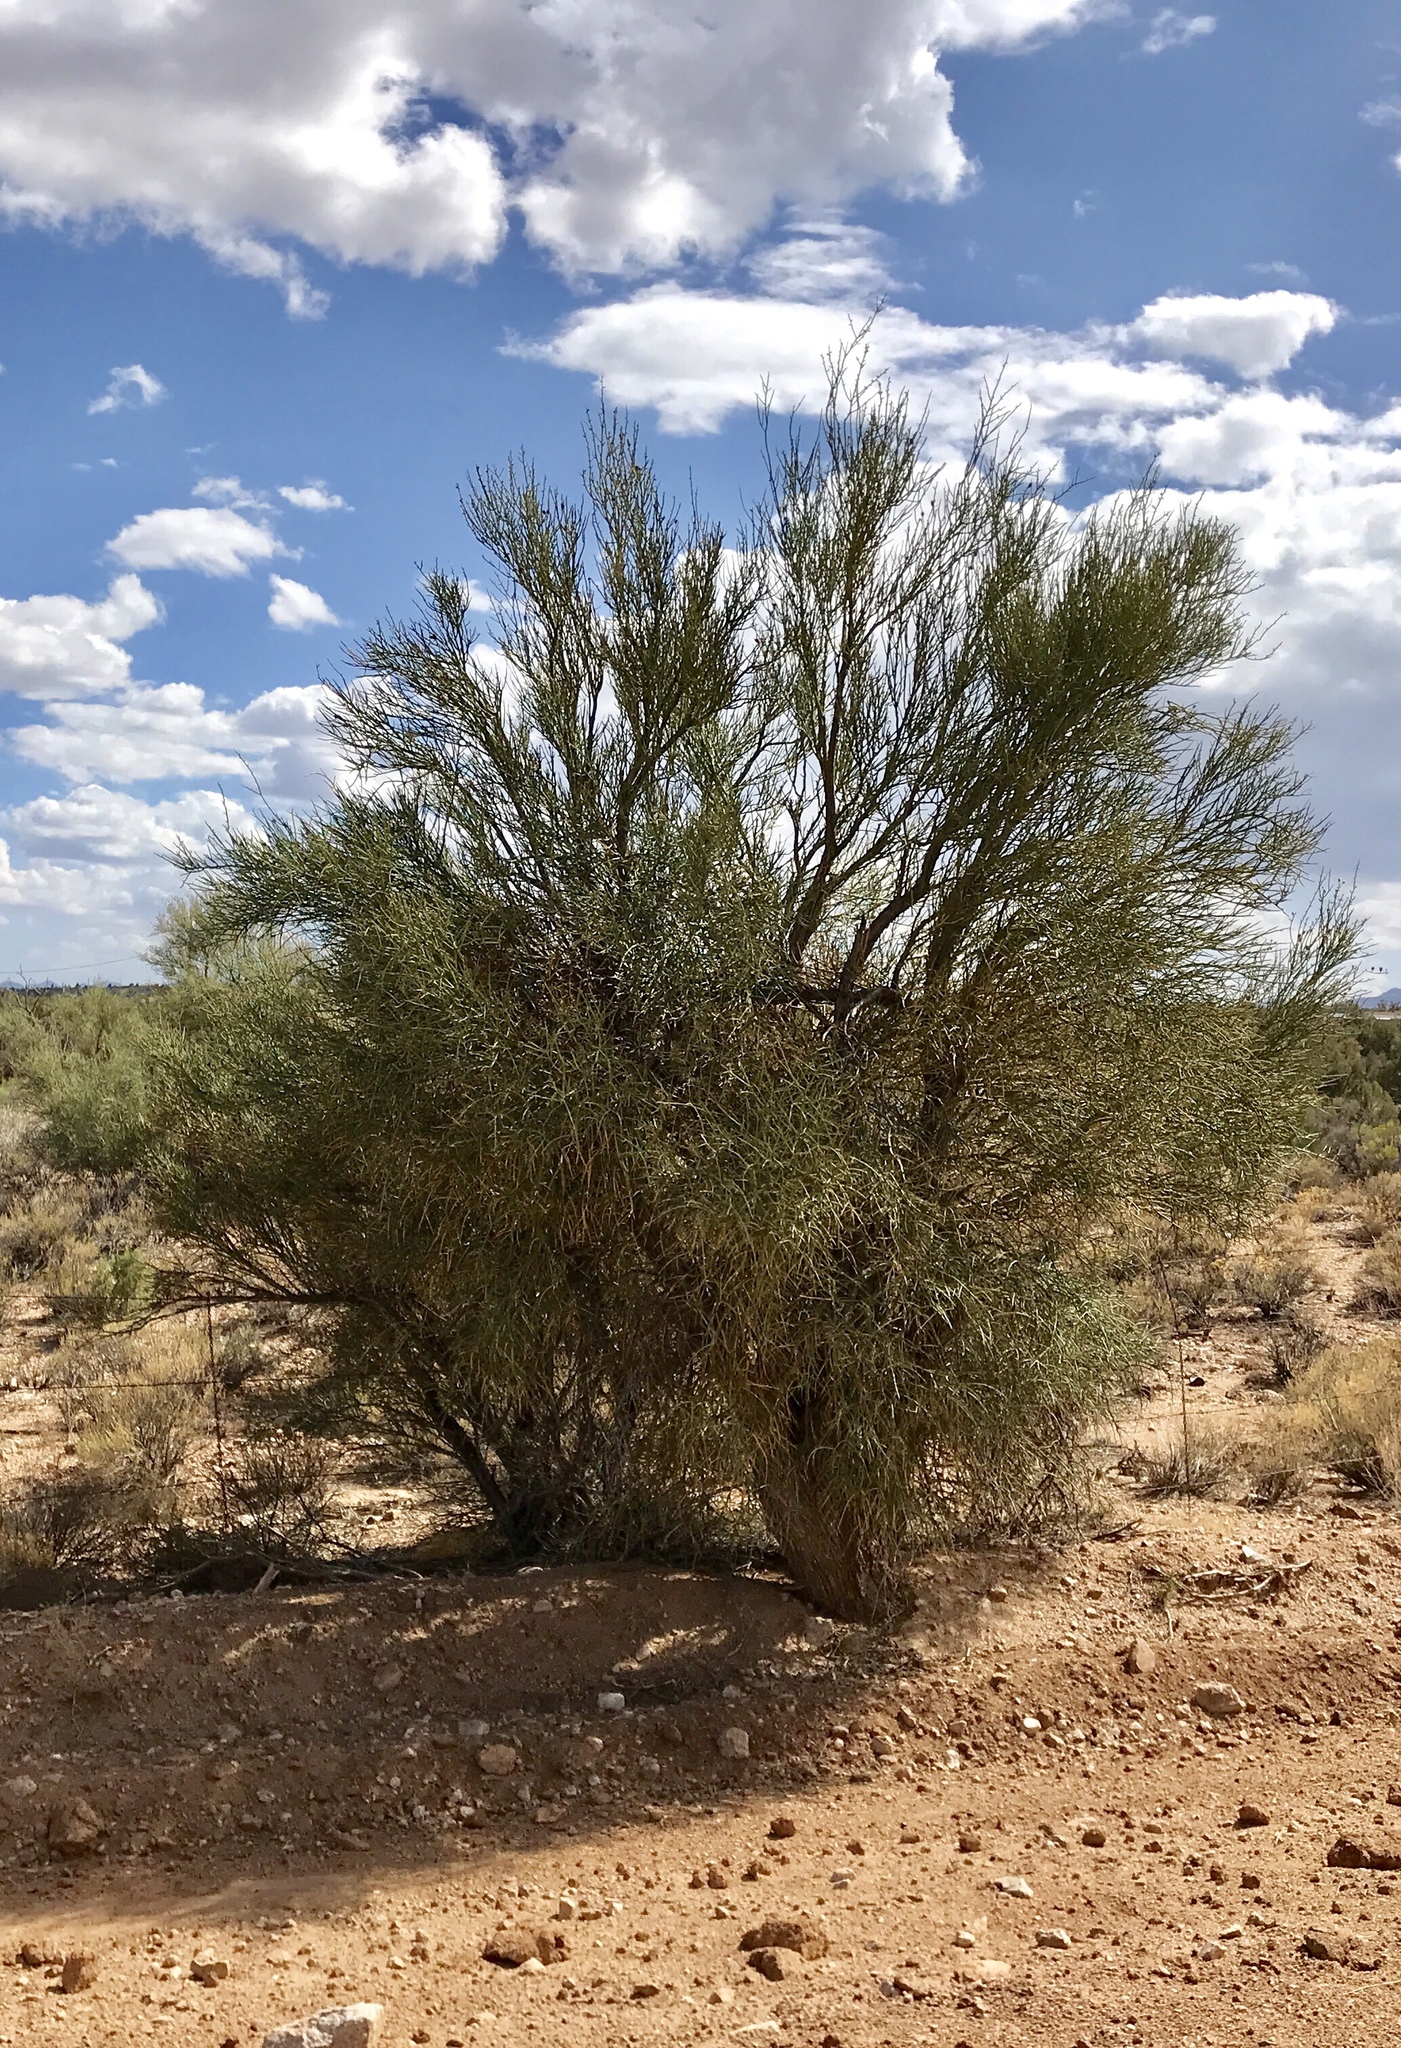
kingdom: Plantae
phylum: Tracheophyta
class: Magnoliopsida
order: Celastrales
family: Celastraceae
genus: Canotia
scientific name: Canotia holacantha
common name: Crucifixion thorns
